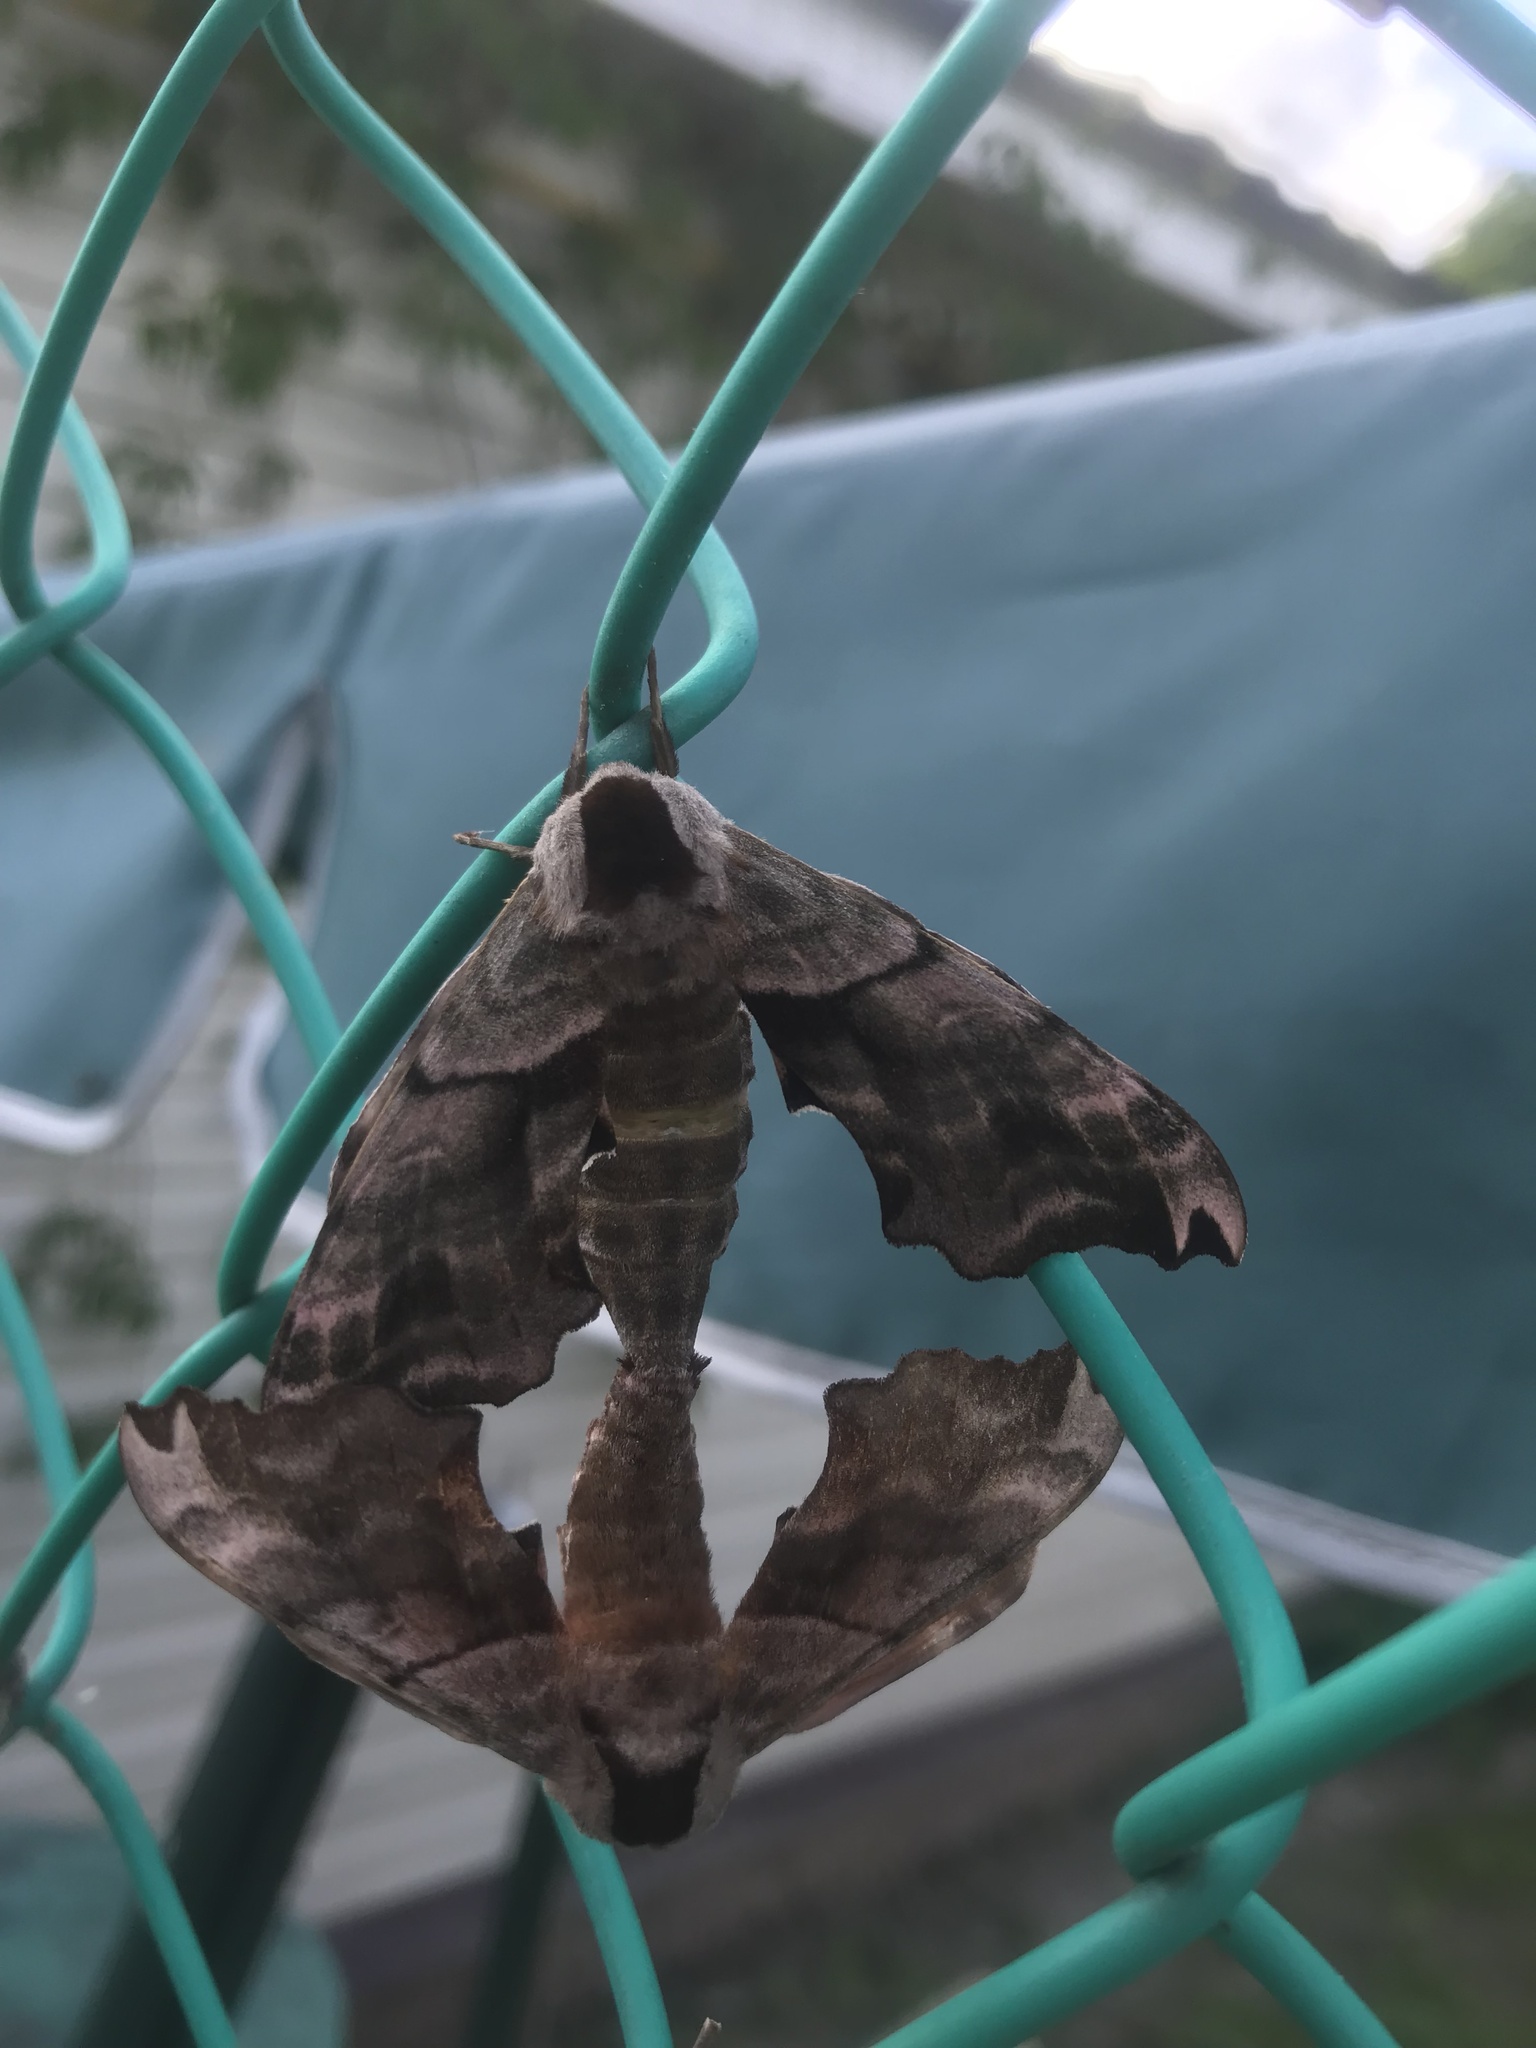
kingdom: Animalia
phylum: Arthropoda
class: Insecta
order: Lepidoptera
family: Sphingidae
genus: Smerinthus
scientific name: Smerinthus caecus
